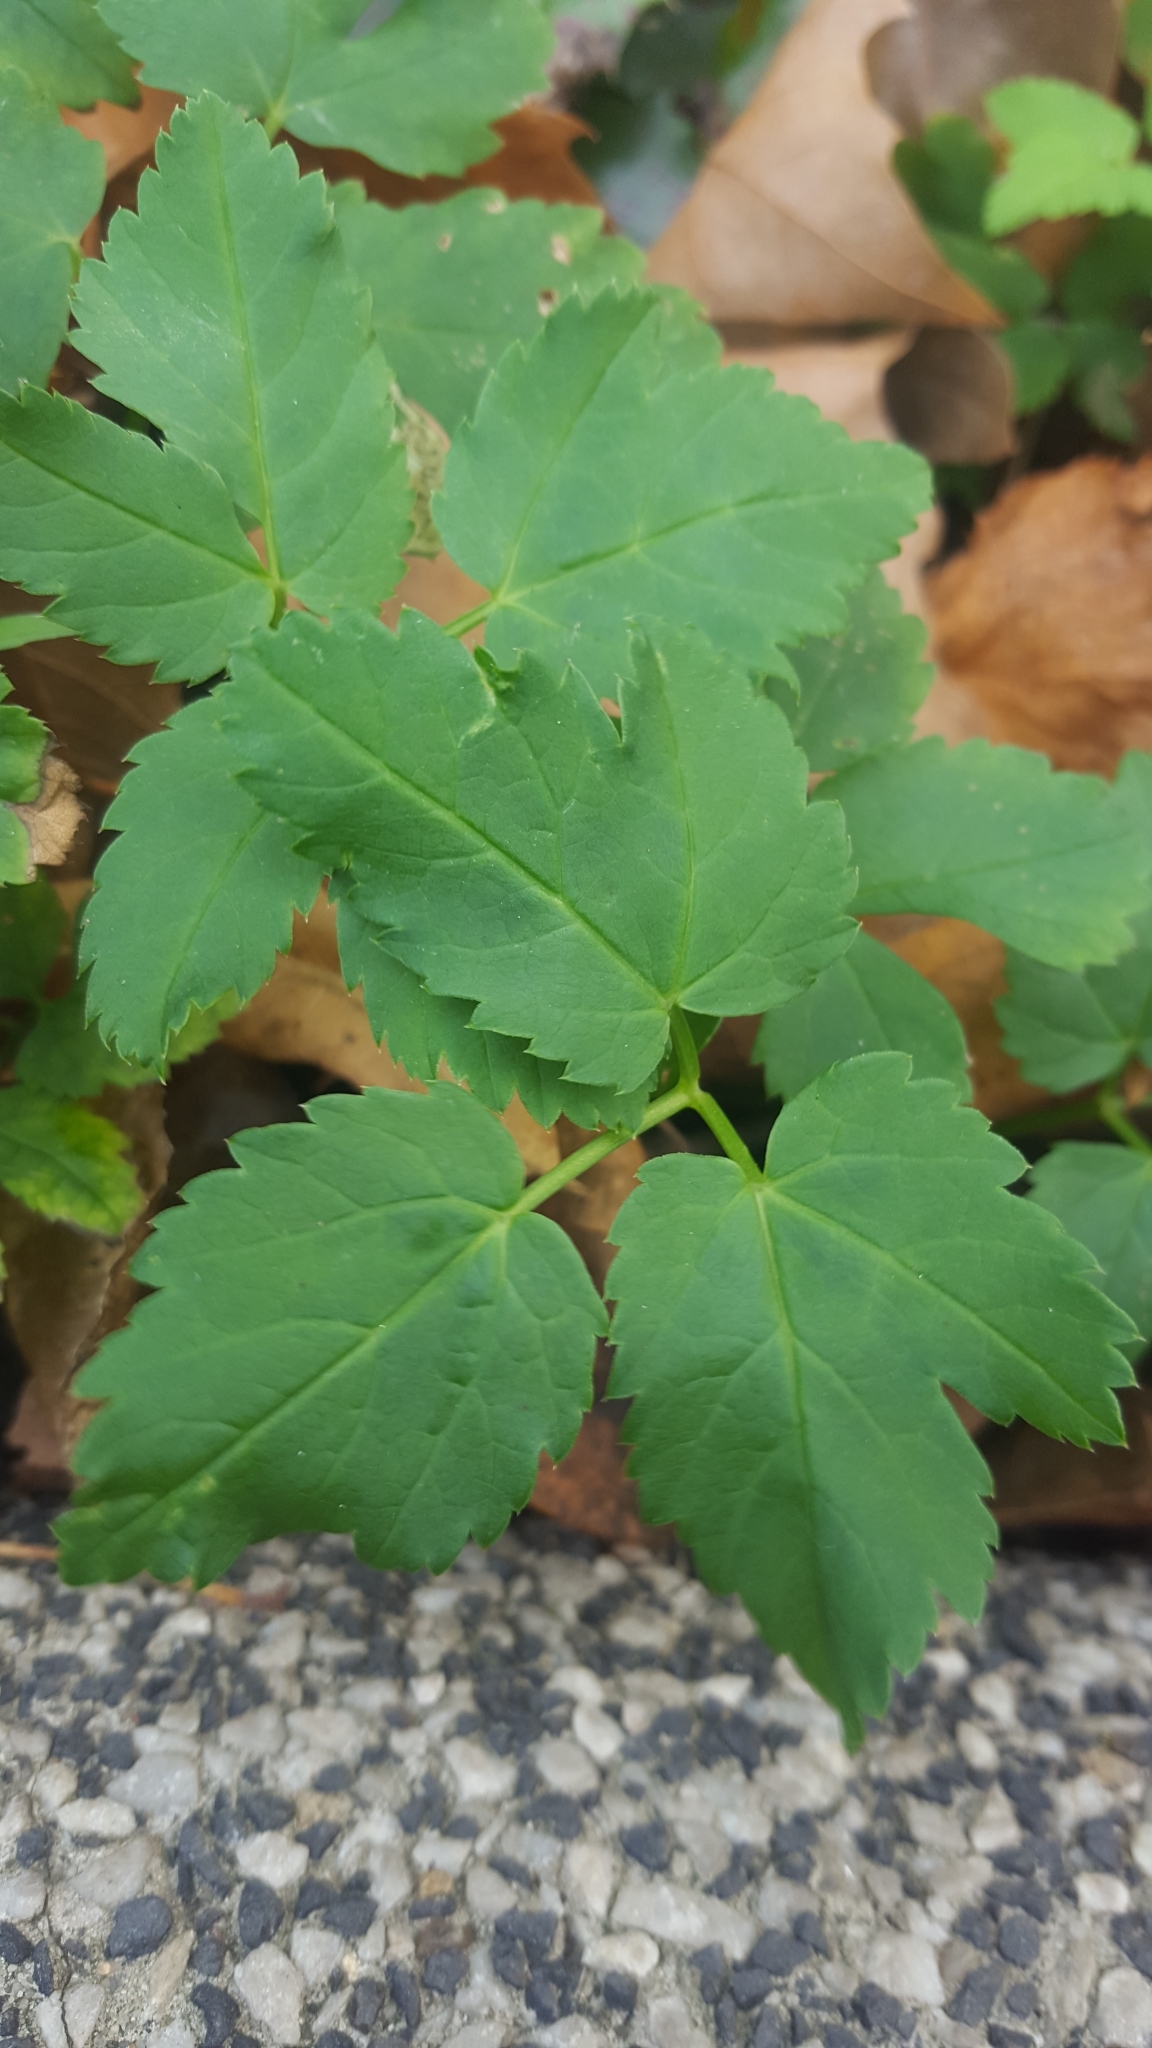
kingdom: Plantae
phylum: Tracheophyta
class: Magnoliopsida
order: Apiales
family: Apiaceae
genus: Aegopodium
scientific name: Aegopodium podagraria
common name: Ground-elder
